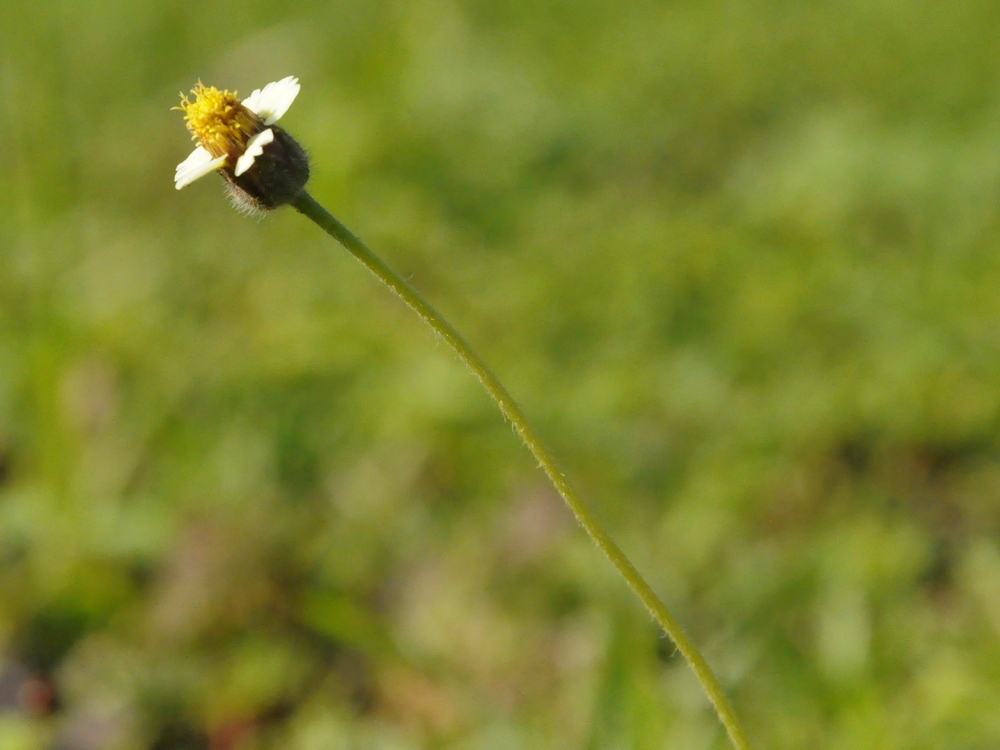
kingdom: Plantae
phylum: Tracheophyta
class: Magnoliopsida
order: Asterales
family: Asteraceae
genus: Tridax
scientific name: Tridax procumbens
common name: Coatbuttons
